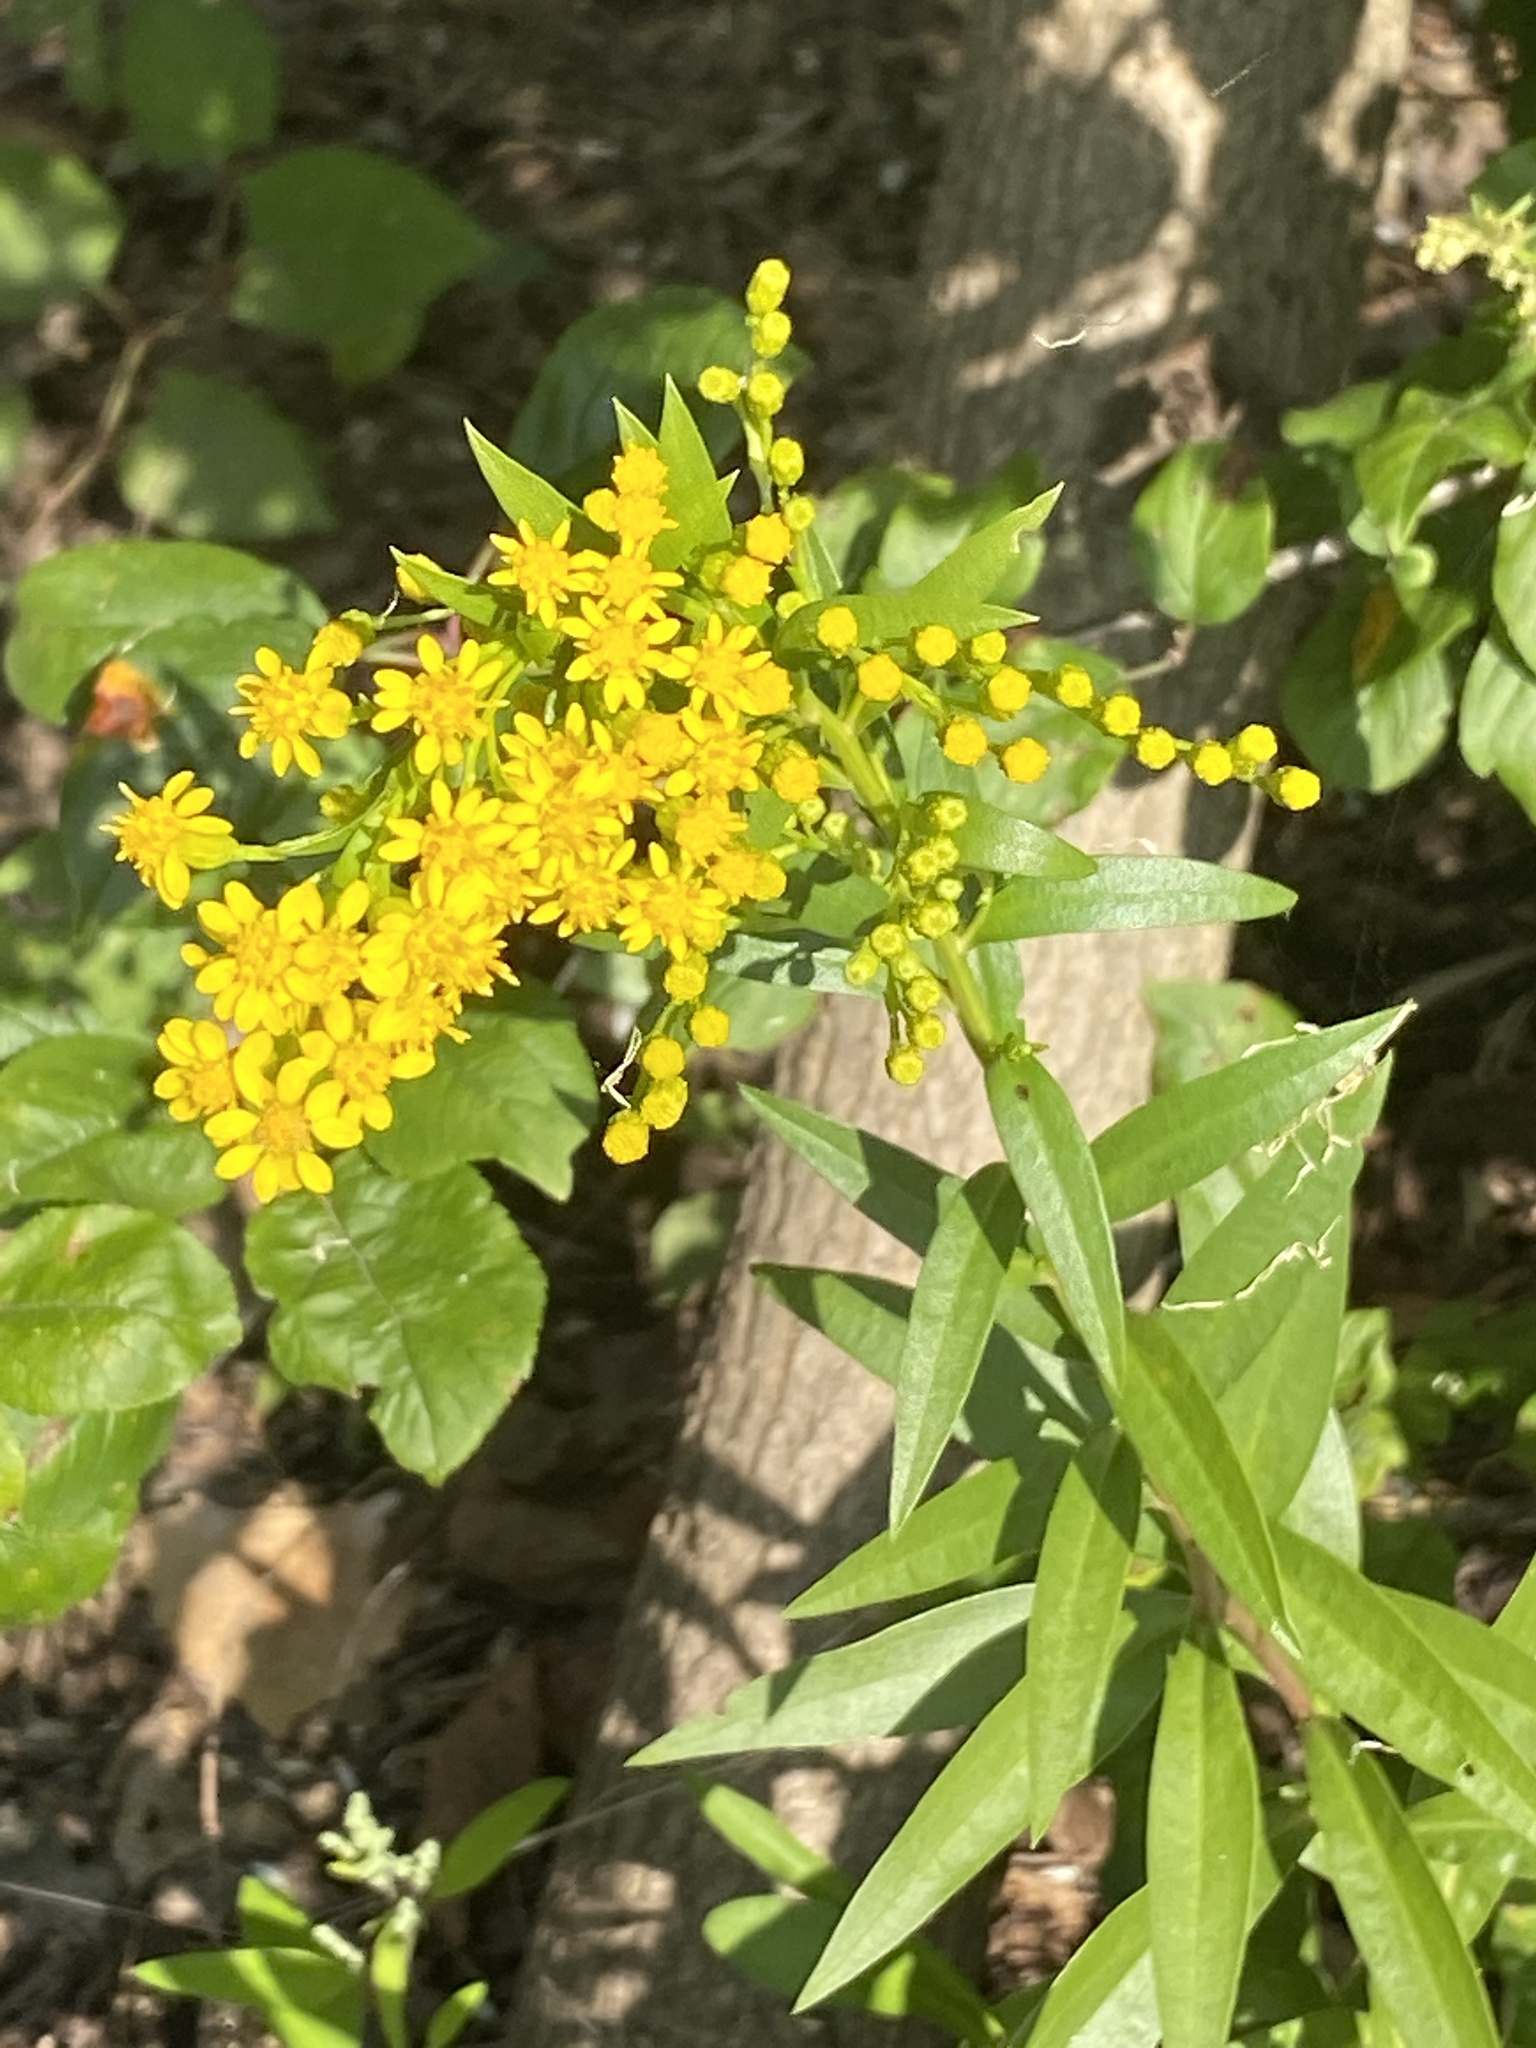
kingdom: Plantae
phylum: Tracheophyta
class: Magnoliopsida
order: Asterales
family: Asteraceae
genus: Solidago
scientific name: Solidago sempervirens
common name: Salt-marsh goldenrod
